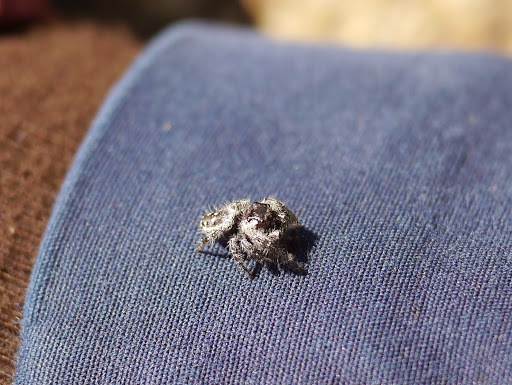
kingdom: Animalia
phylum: Arthropoda
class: Arachnida
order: Araneae
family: Salticidae
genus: Phidippus
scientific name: Phidippus otiosus
